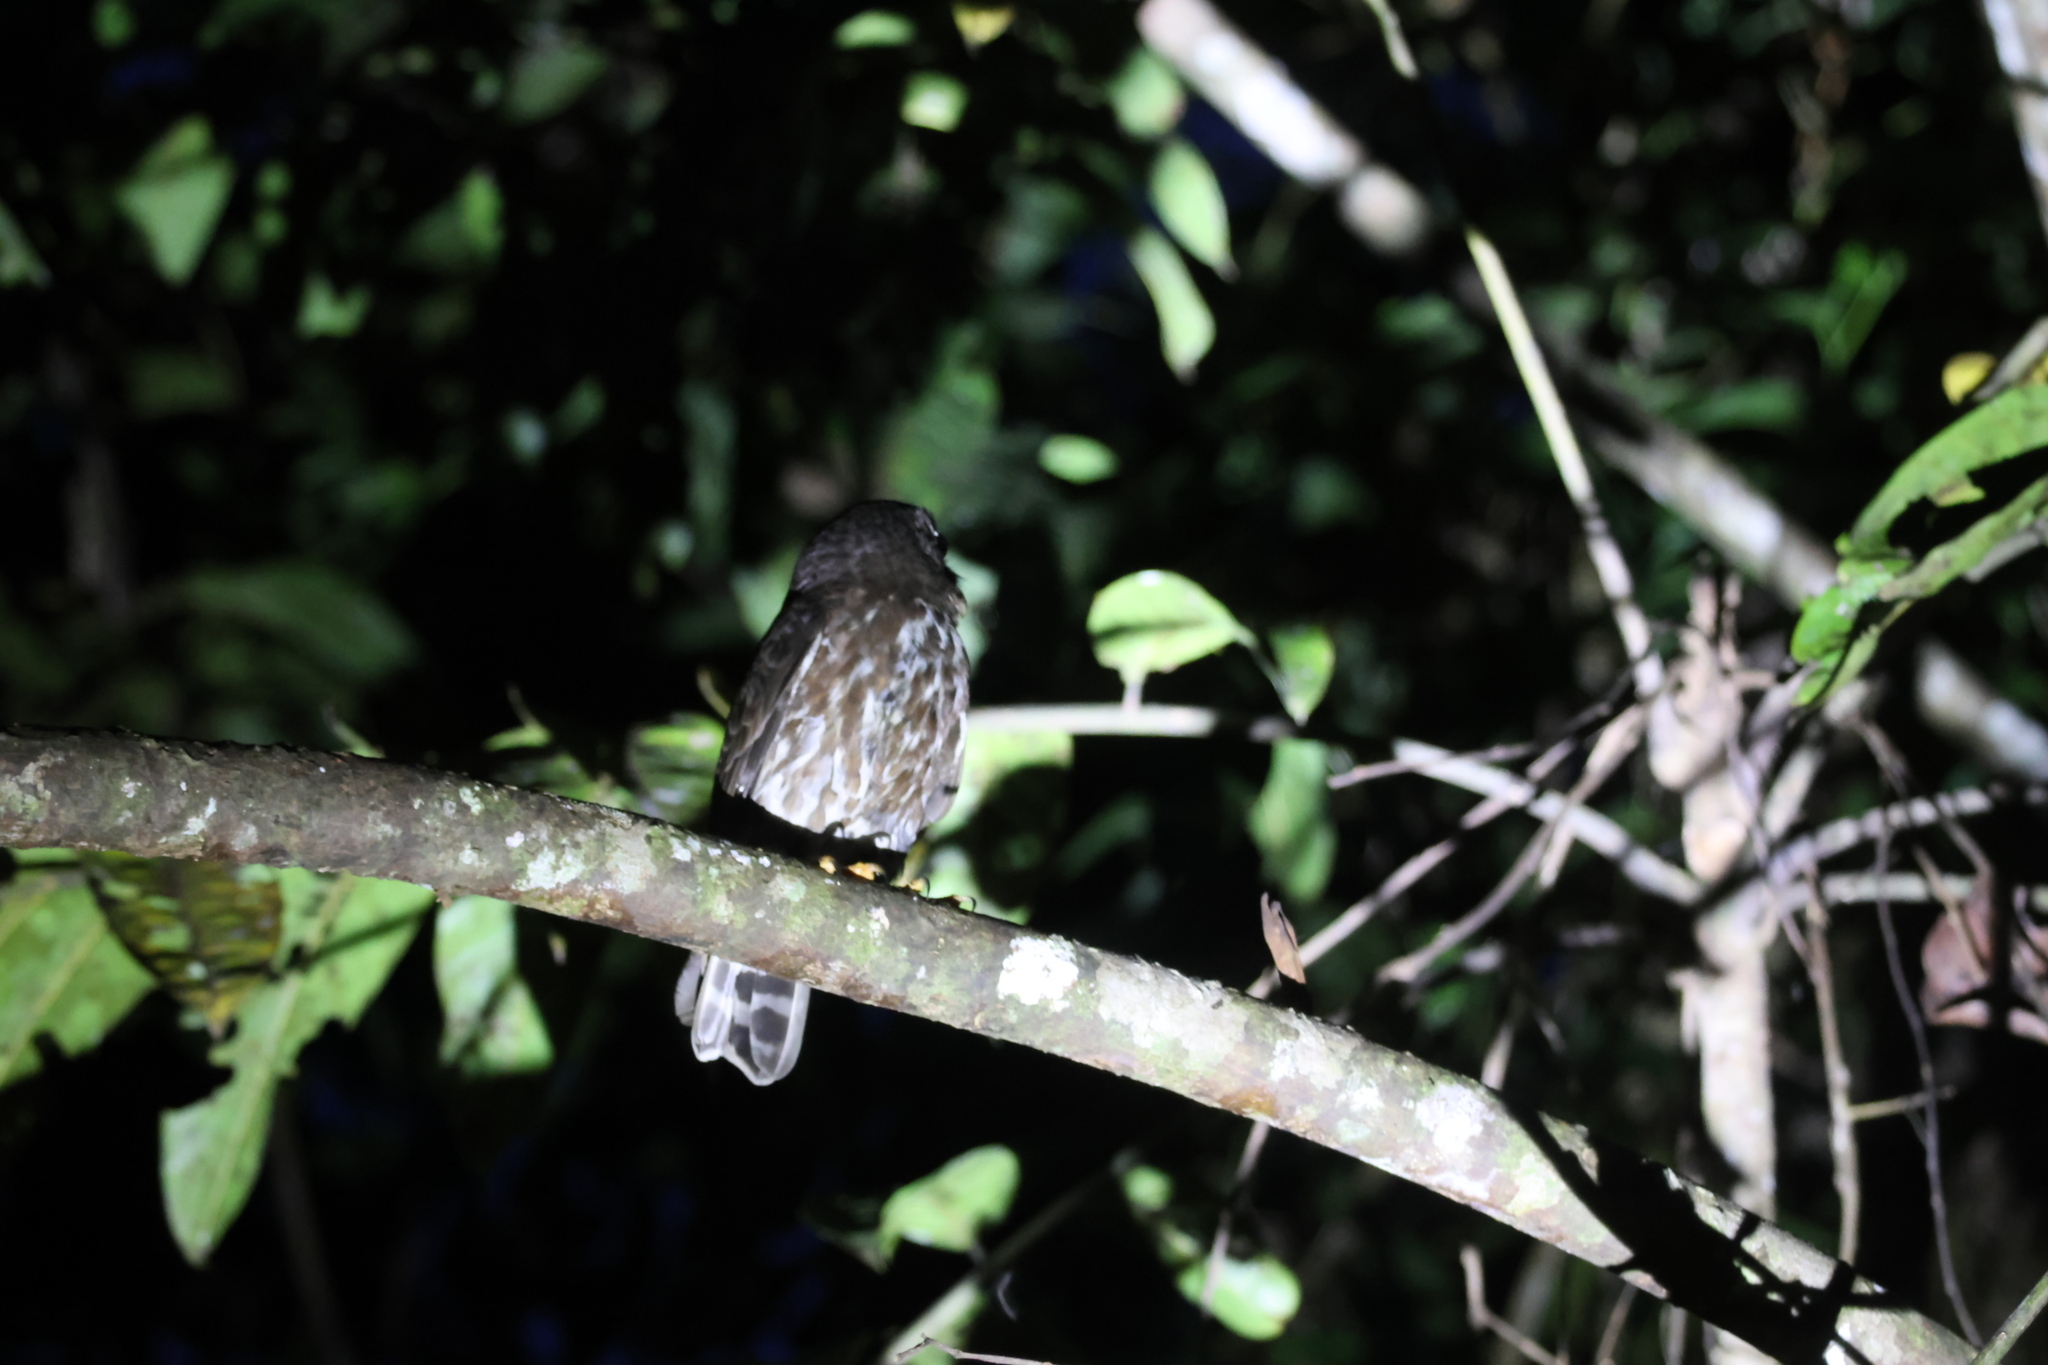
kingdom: Animalia
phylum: Chordata
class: Aves
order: Strigiformes
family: Strigidae
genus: Ninox
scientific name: Ninox scutulata
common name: Brown hawk-owl
